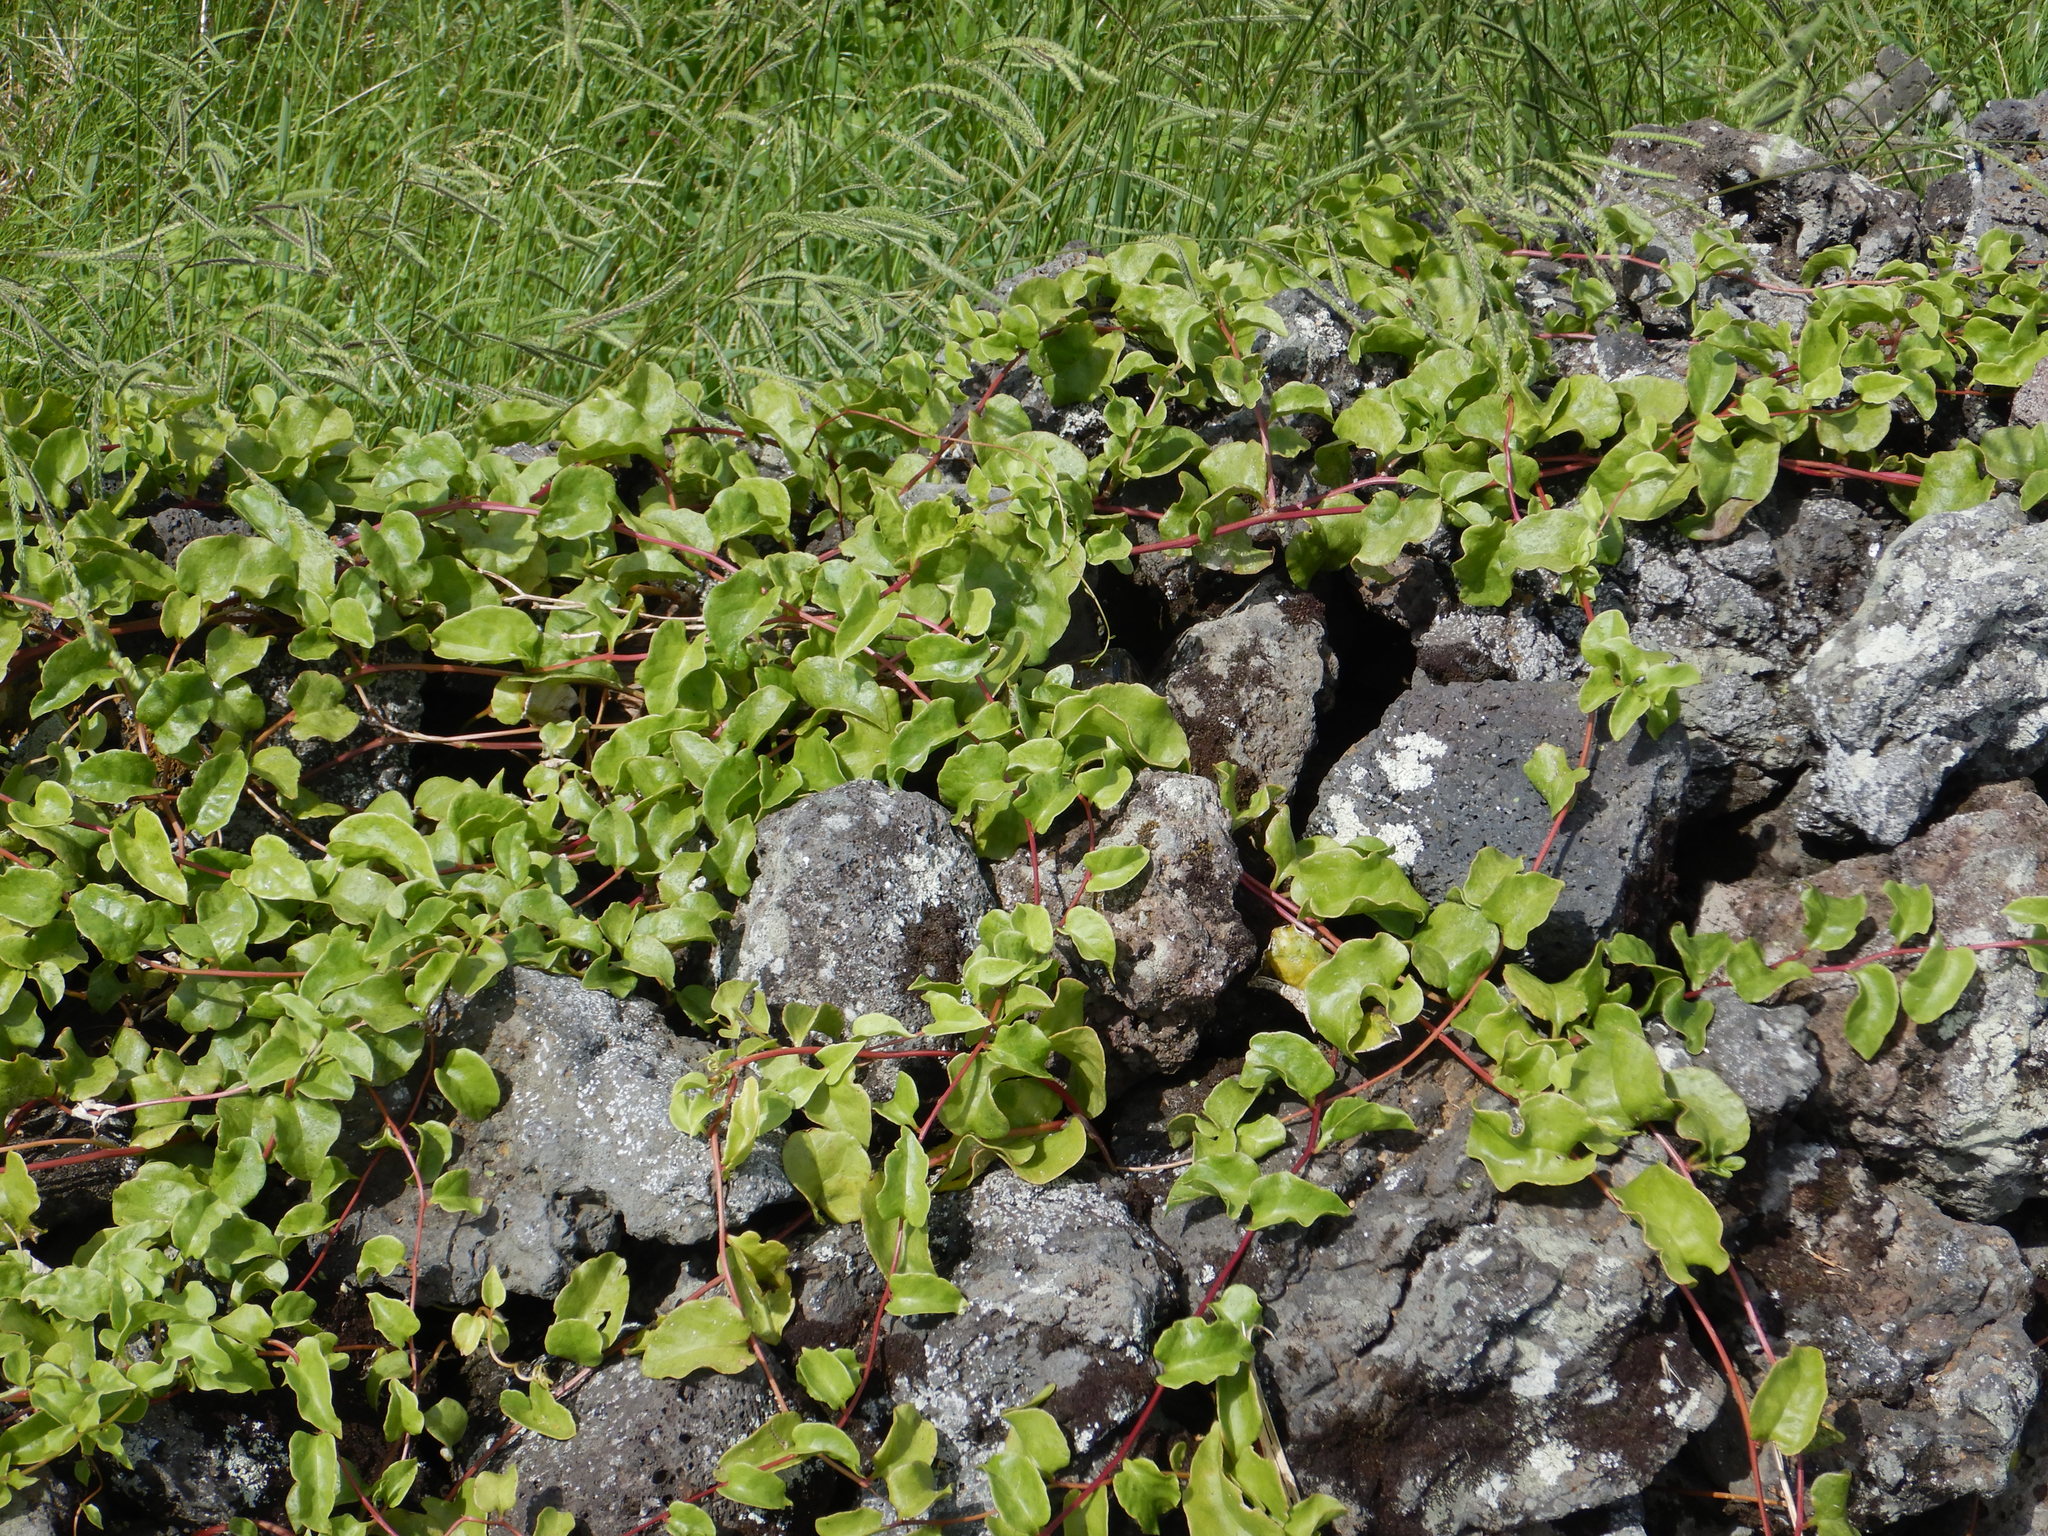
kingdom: Plantae
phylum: Tracheophyta
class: Magnoliopsida
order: Caryophyllales
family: Basellaceae
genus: Anredera
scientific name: Anredera cordifolia
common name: Heartleaf madeiravine
